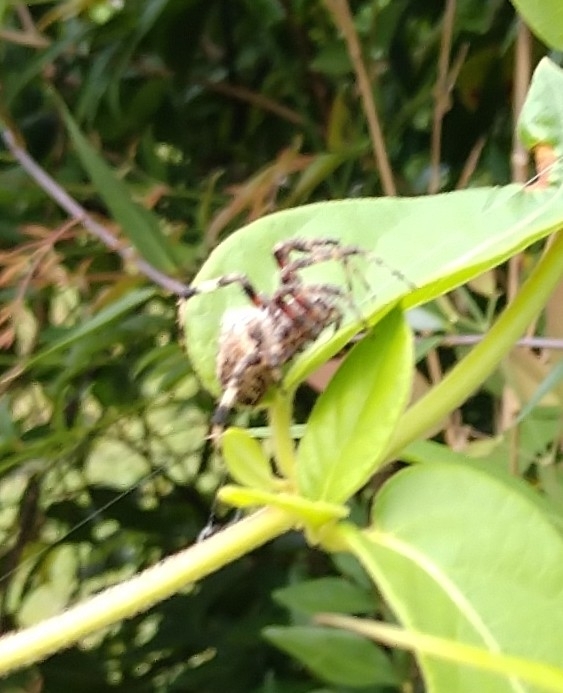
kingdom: Animalia
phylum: Arthropoda
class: Arachnida
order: Araneae
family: Araneidae
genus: Neoscona
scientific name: Neoscona domiciliorum
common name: Red-femured spotted orbweaver
